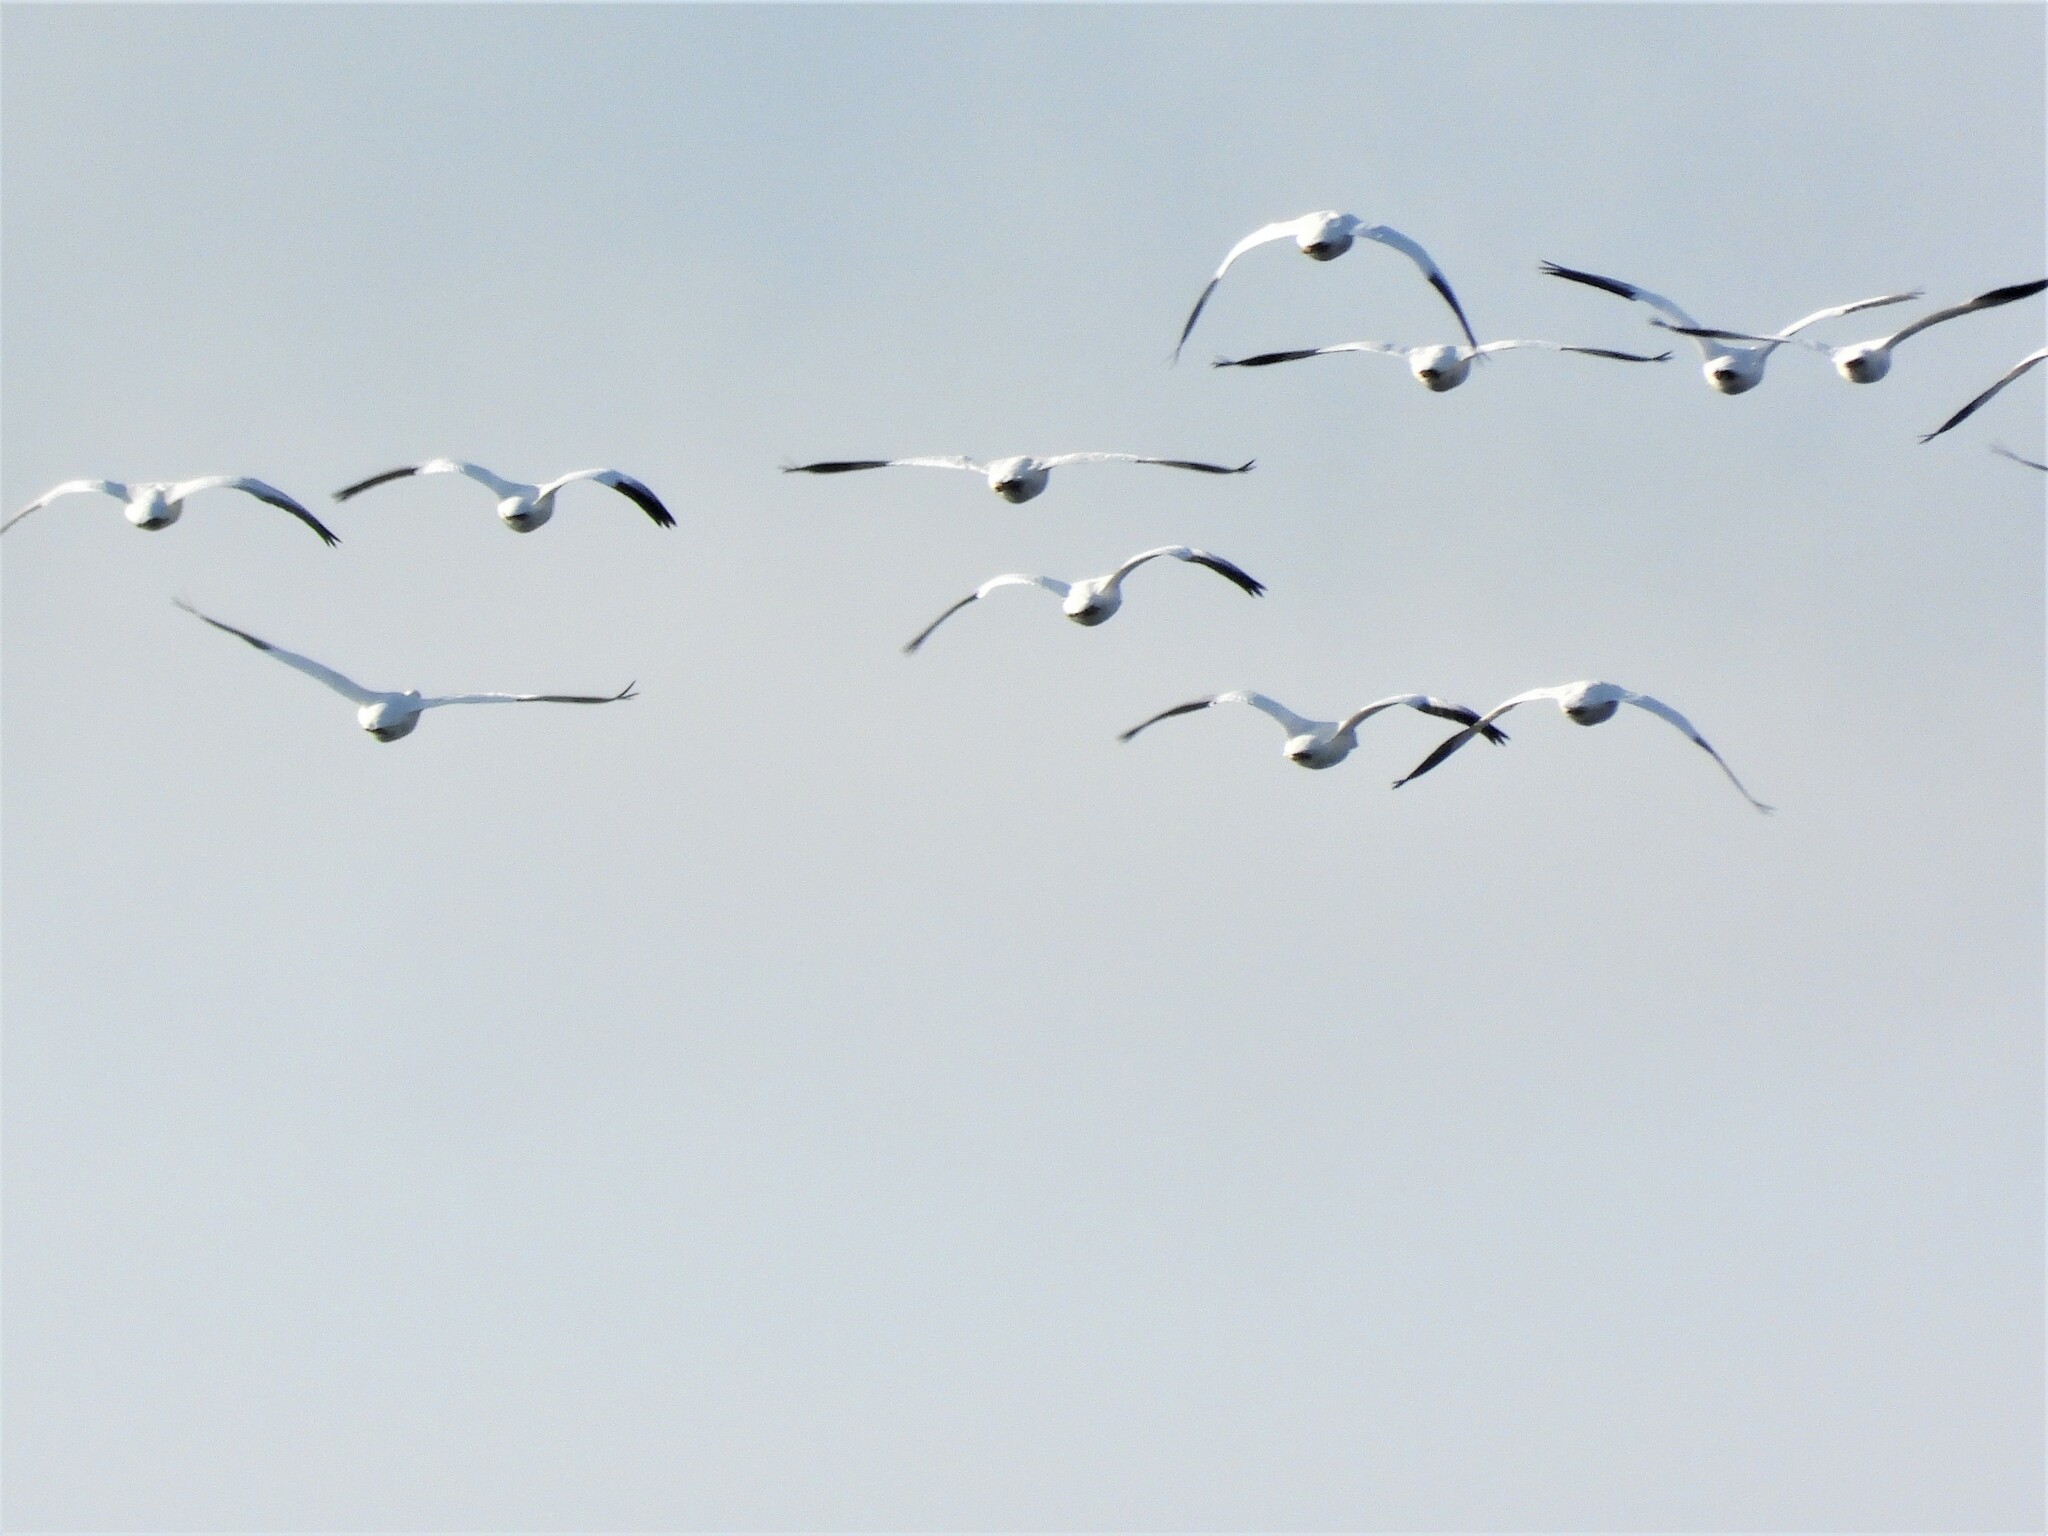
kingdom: Animalia
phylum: Chordata
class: Aves
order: Anseriformes
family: Anatidae
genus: Anser
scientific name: Anser caerulescens
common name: Snow goose
